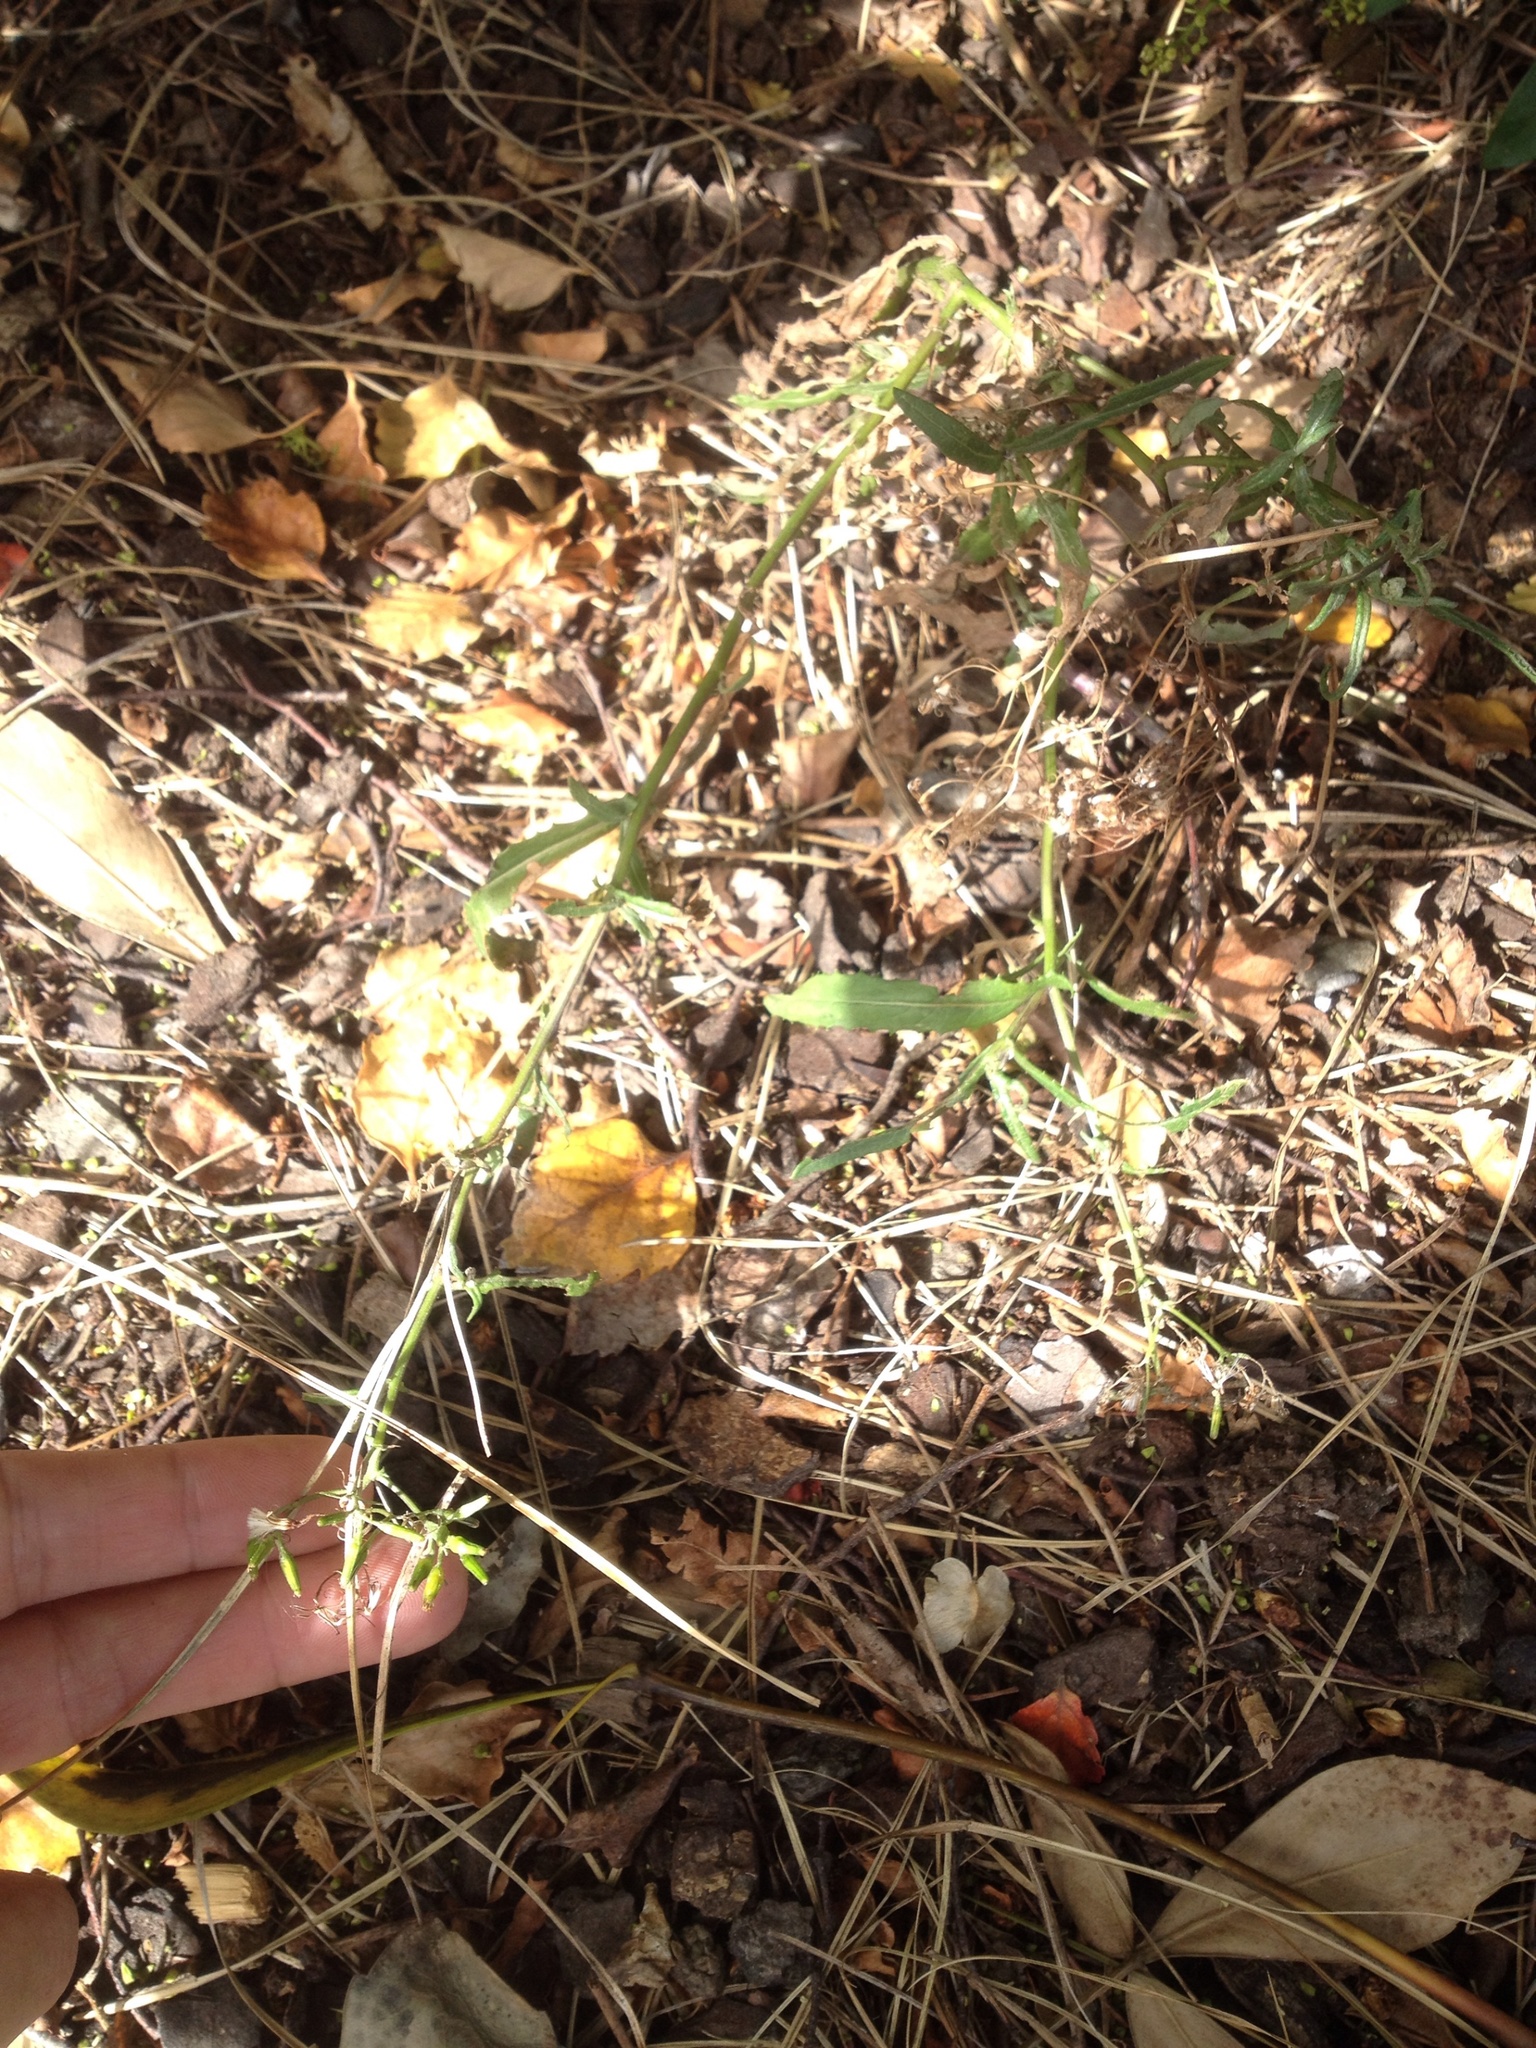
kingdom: Plantae
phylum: Tracheophyta
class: Magnoliopsida
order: Asterales
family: Asteraceae
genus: Senecio
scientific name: Senecio minimus
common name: Toothed fireweed
